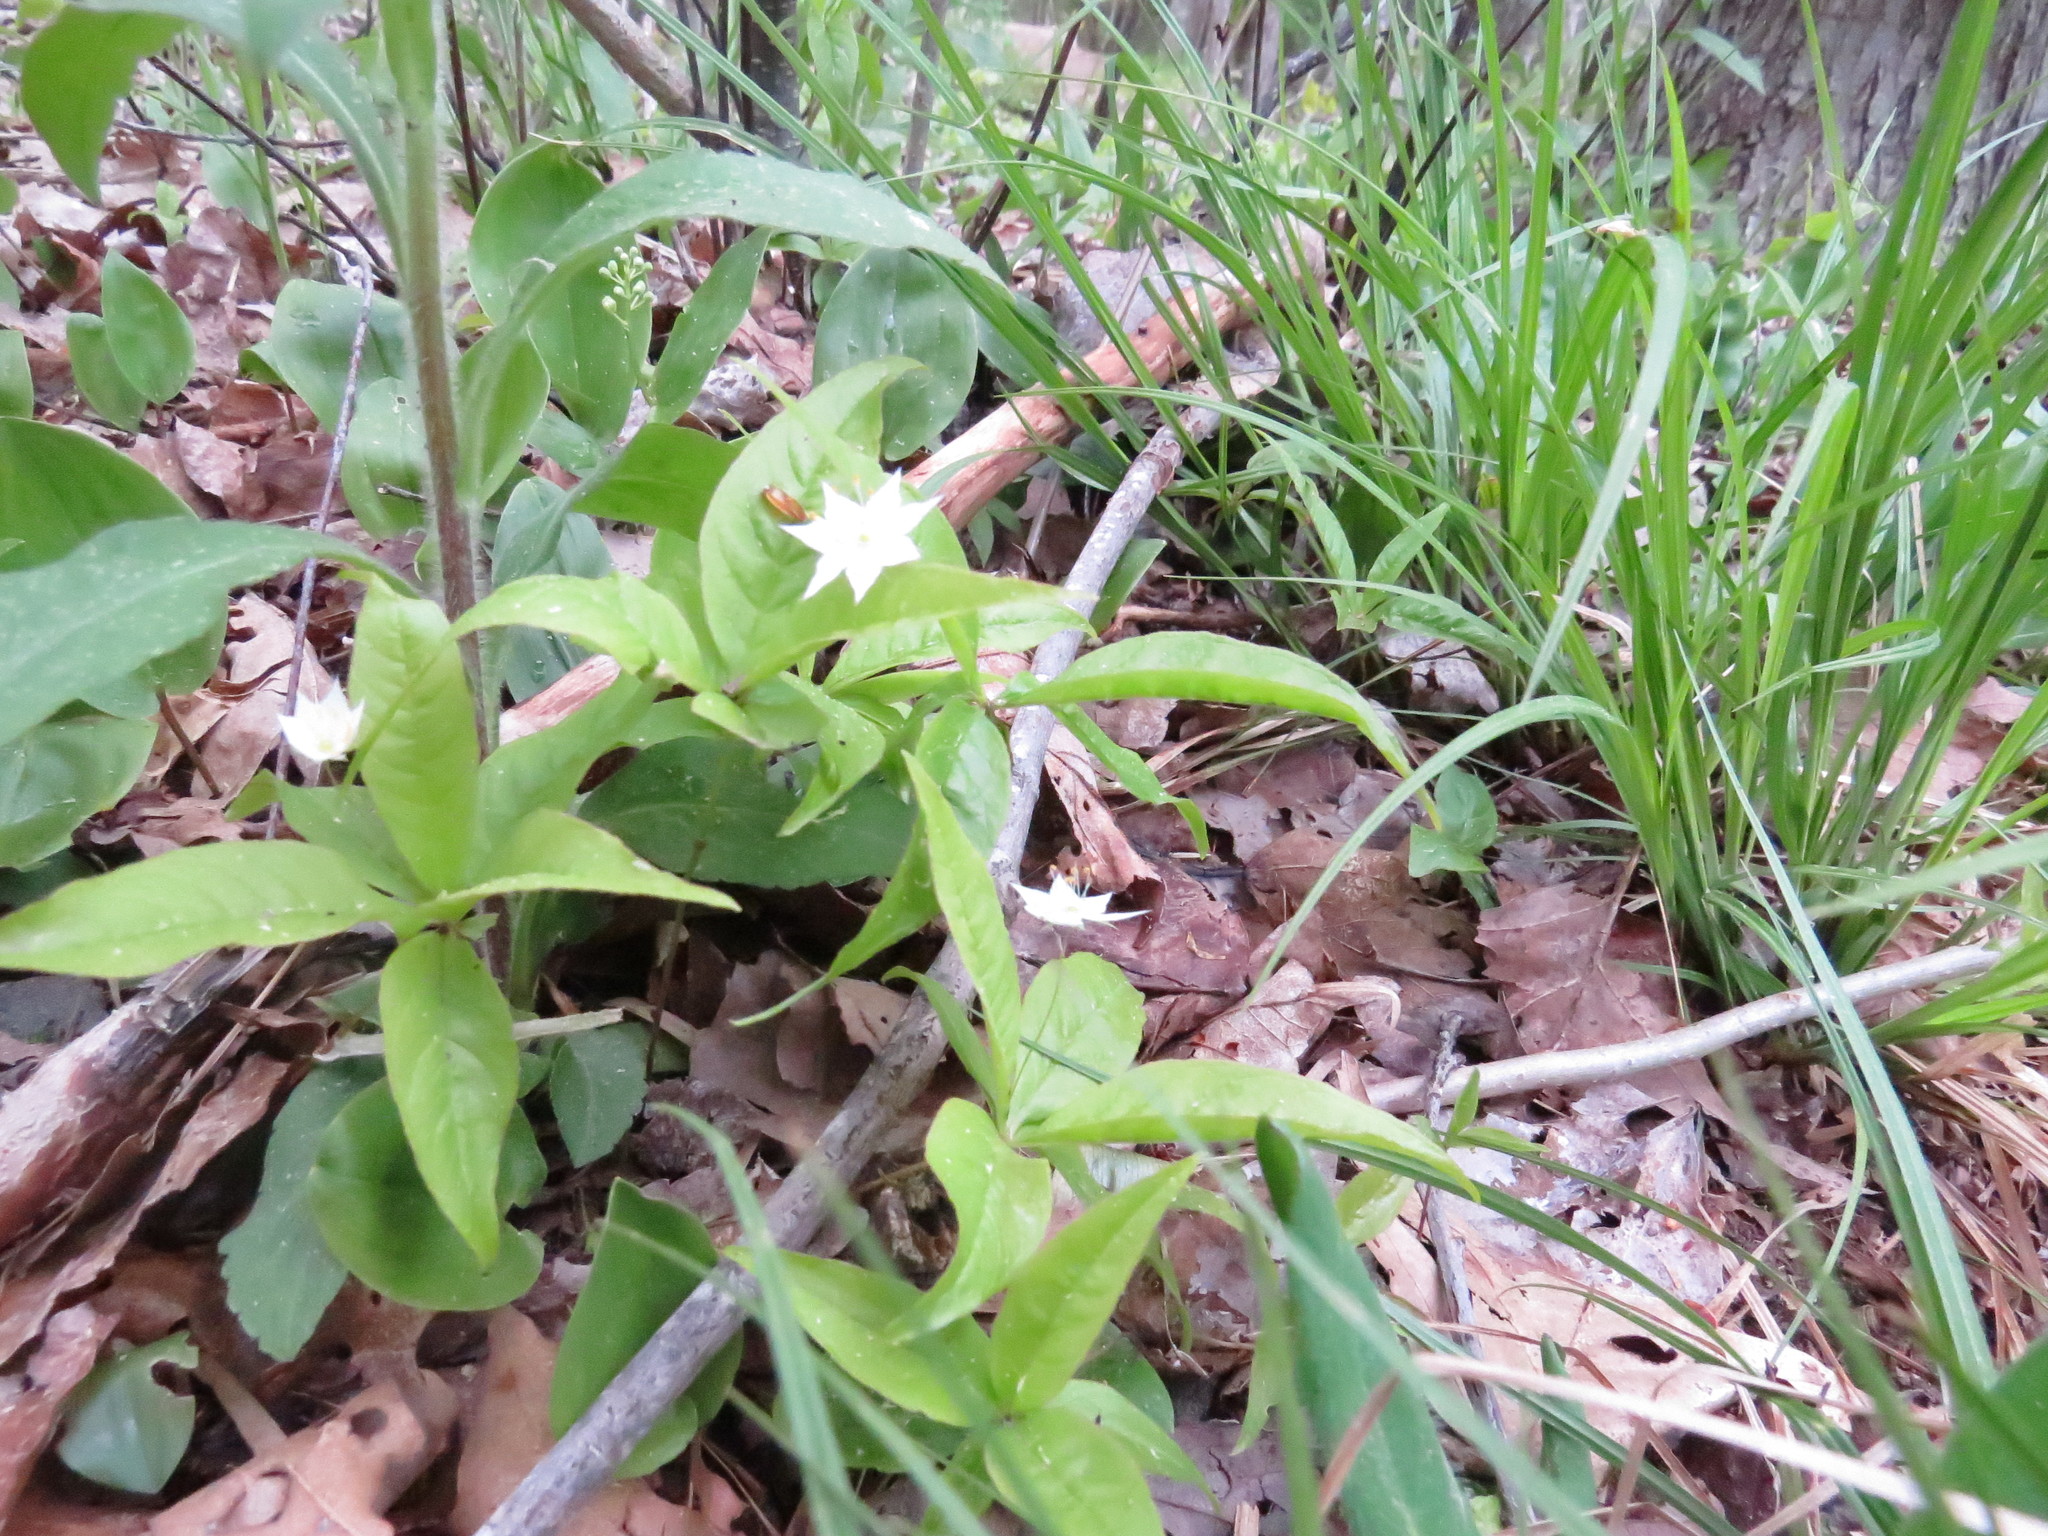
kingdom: Plantae
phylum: Tracheophyta
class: Magnoliopsida
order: Ericales
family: Primulaceae
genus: Lysimachia
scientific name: Lysimachia borealis
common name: American starflower
